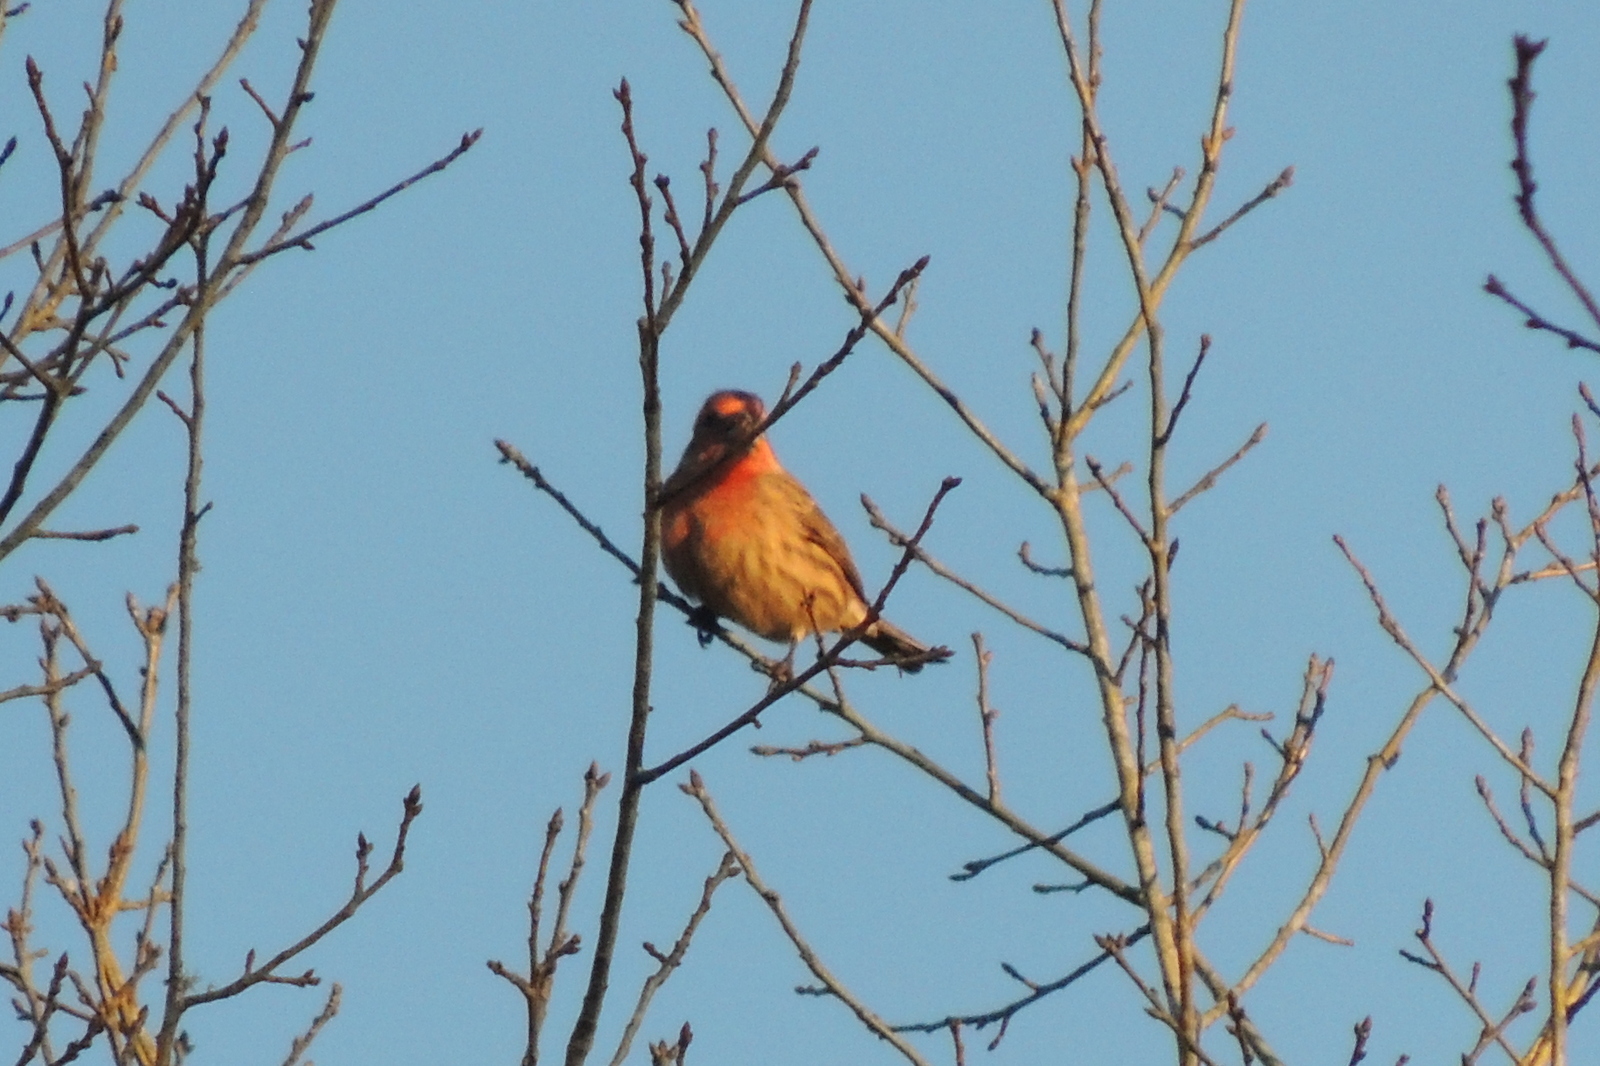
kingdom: Animalia
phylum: Chordata
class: Aves
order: Passeriformes
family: Fringillidae
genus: Haemorhous
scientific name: Haemorhous mexicanus
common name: House finch
